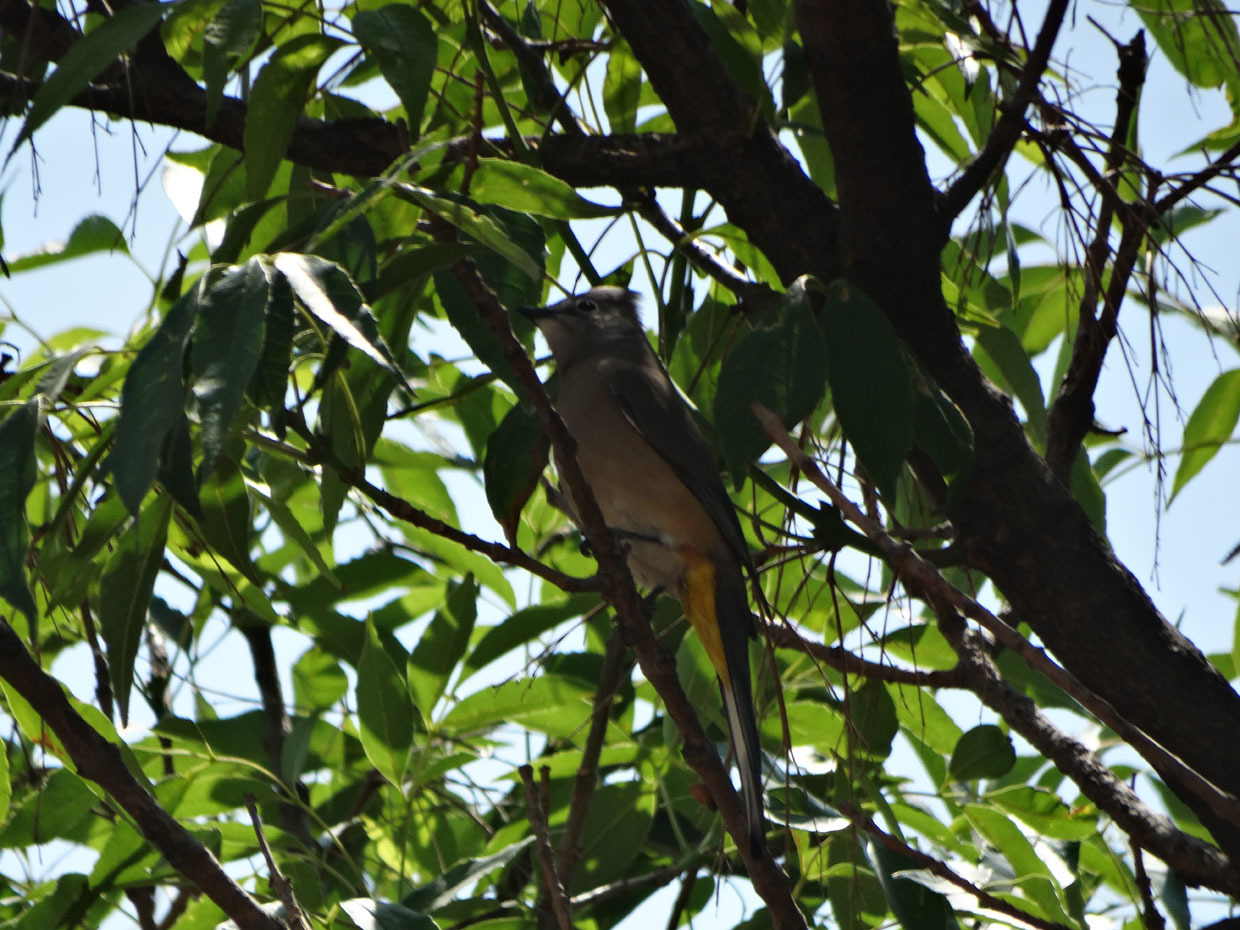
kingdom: Animalia
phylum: Chordata
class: Aves
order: Passeriformes
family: Ptilogonatidae
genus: Ptilogonys
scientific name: Ptilogonys cinereus
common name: Gray silky-flycatcher
